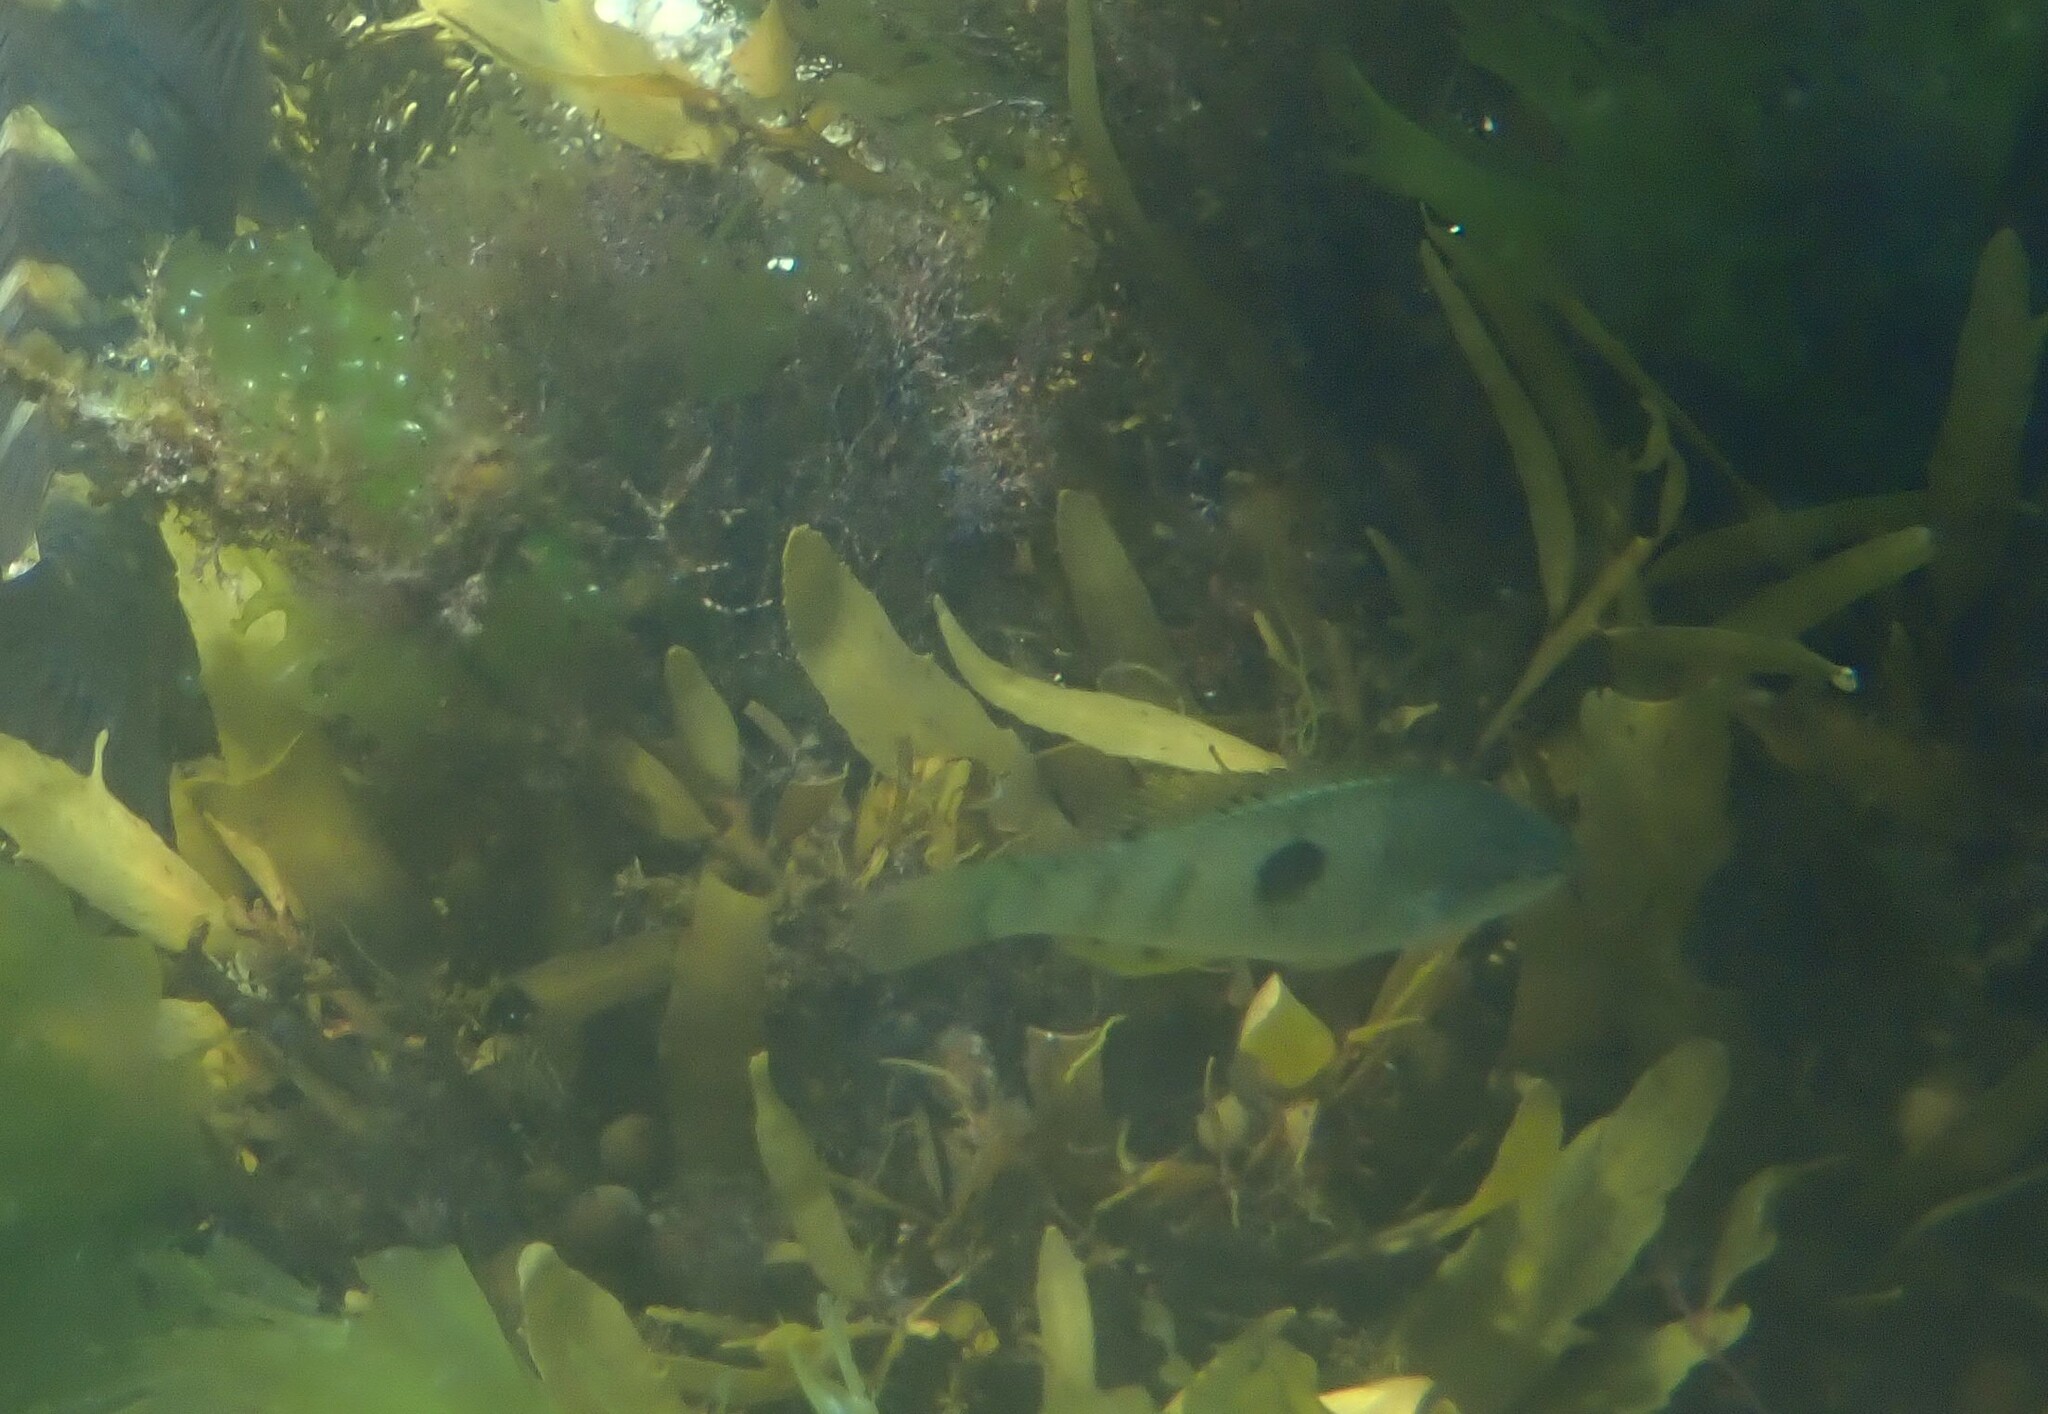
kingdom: Animalia
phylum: Chordata
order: Perciformes
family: Labridae
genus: Notolabrus
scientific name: Notolabrus celidotus
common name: Spotty
